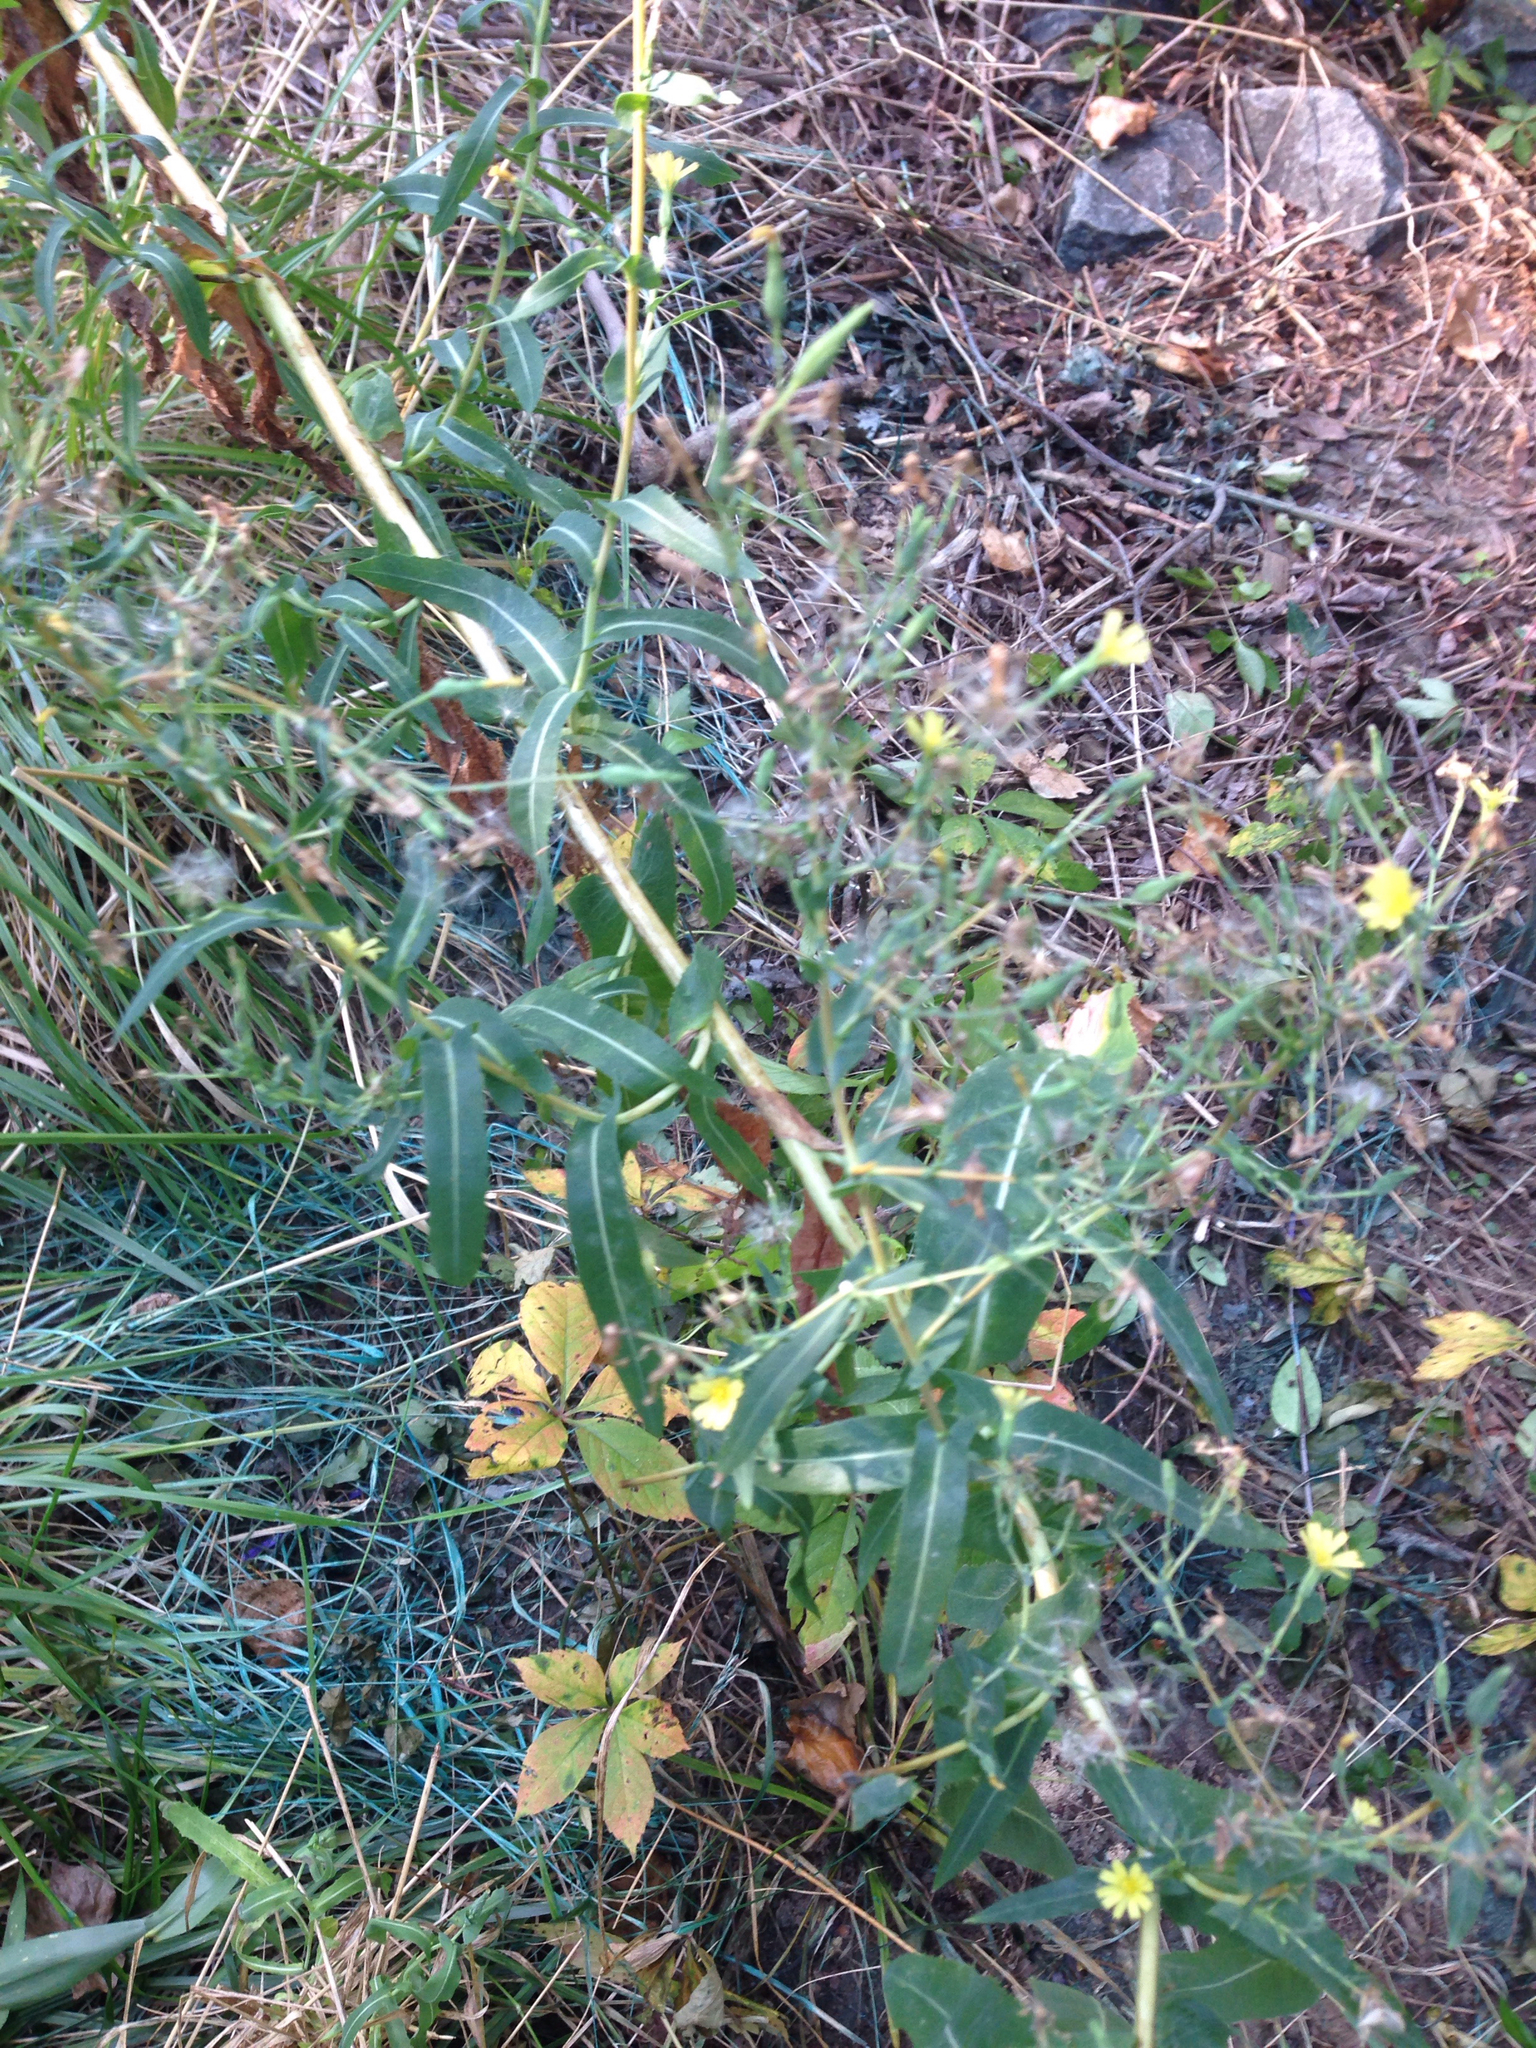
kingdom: Plantae
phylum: Tracheophyta
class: Magnoliopsida
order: Asterales
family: Asteraceae
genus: Lactuca
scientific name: Lactuca serriola
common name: Prickly lettuce
